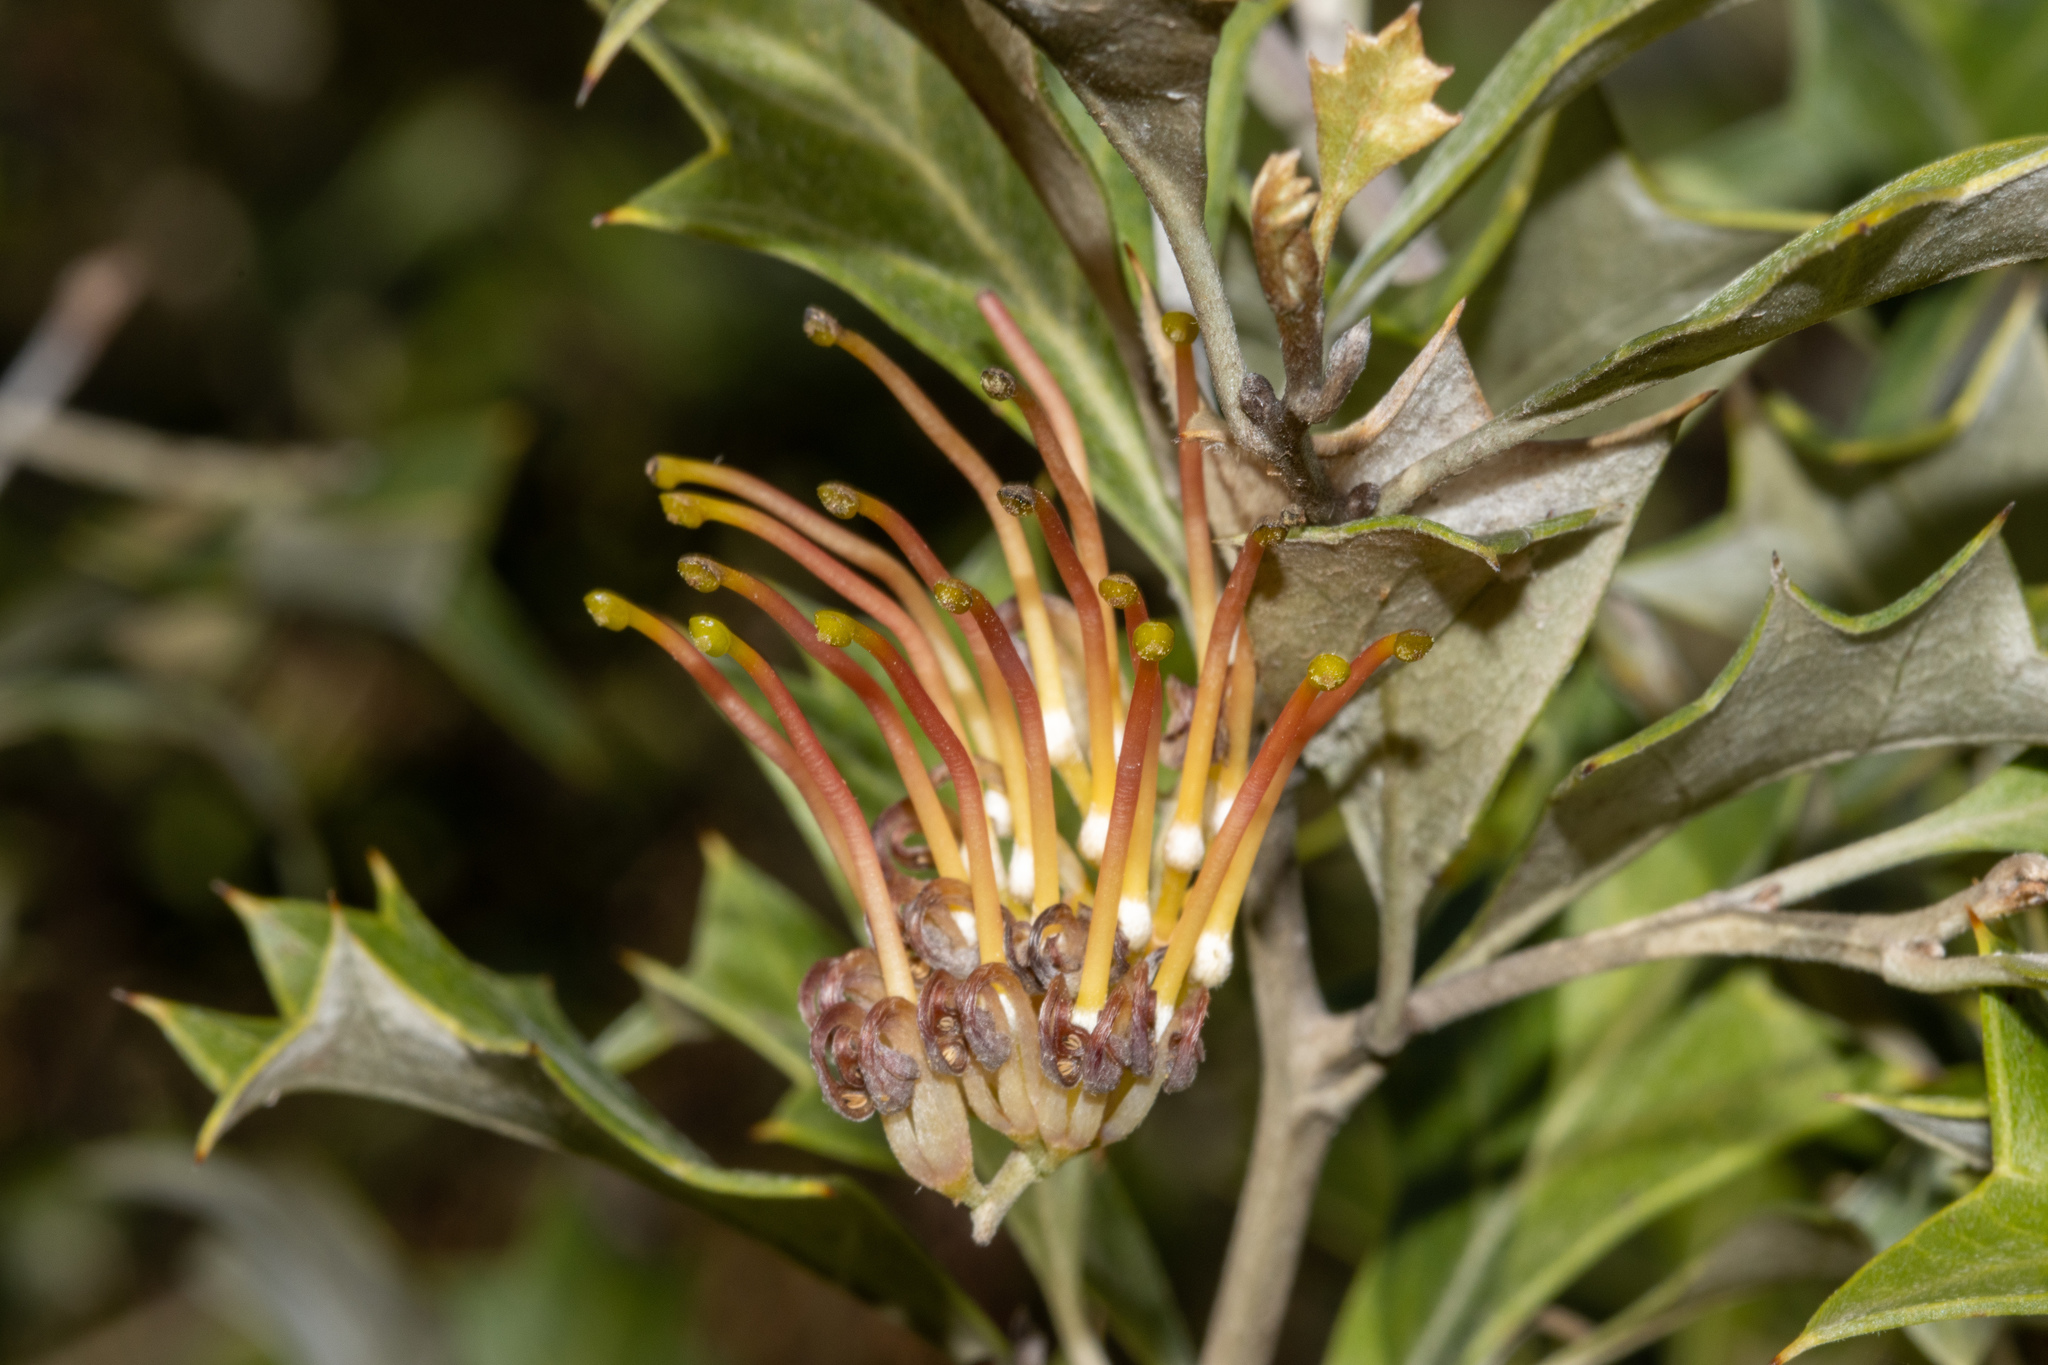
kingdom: Plantae
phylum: Tracheophyta
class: Magnoliopsida
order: Proteales
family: Proteaceae
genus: Grevillea
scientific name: Grevillea ilicifolia
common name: Holly grevillea
